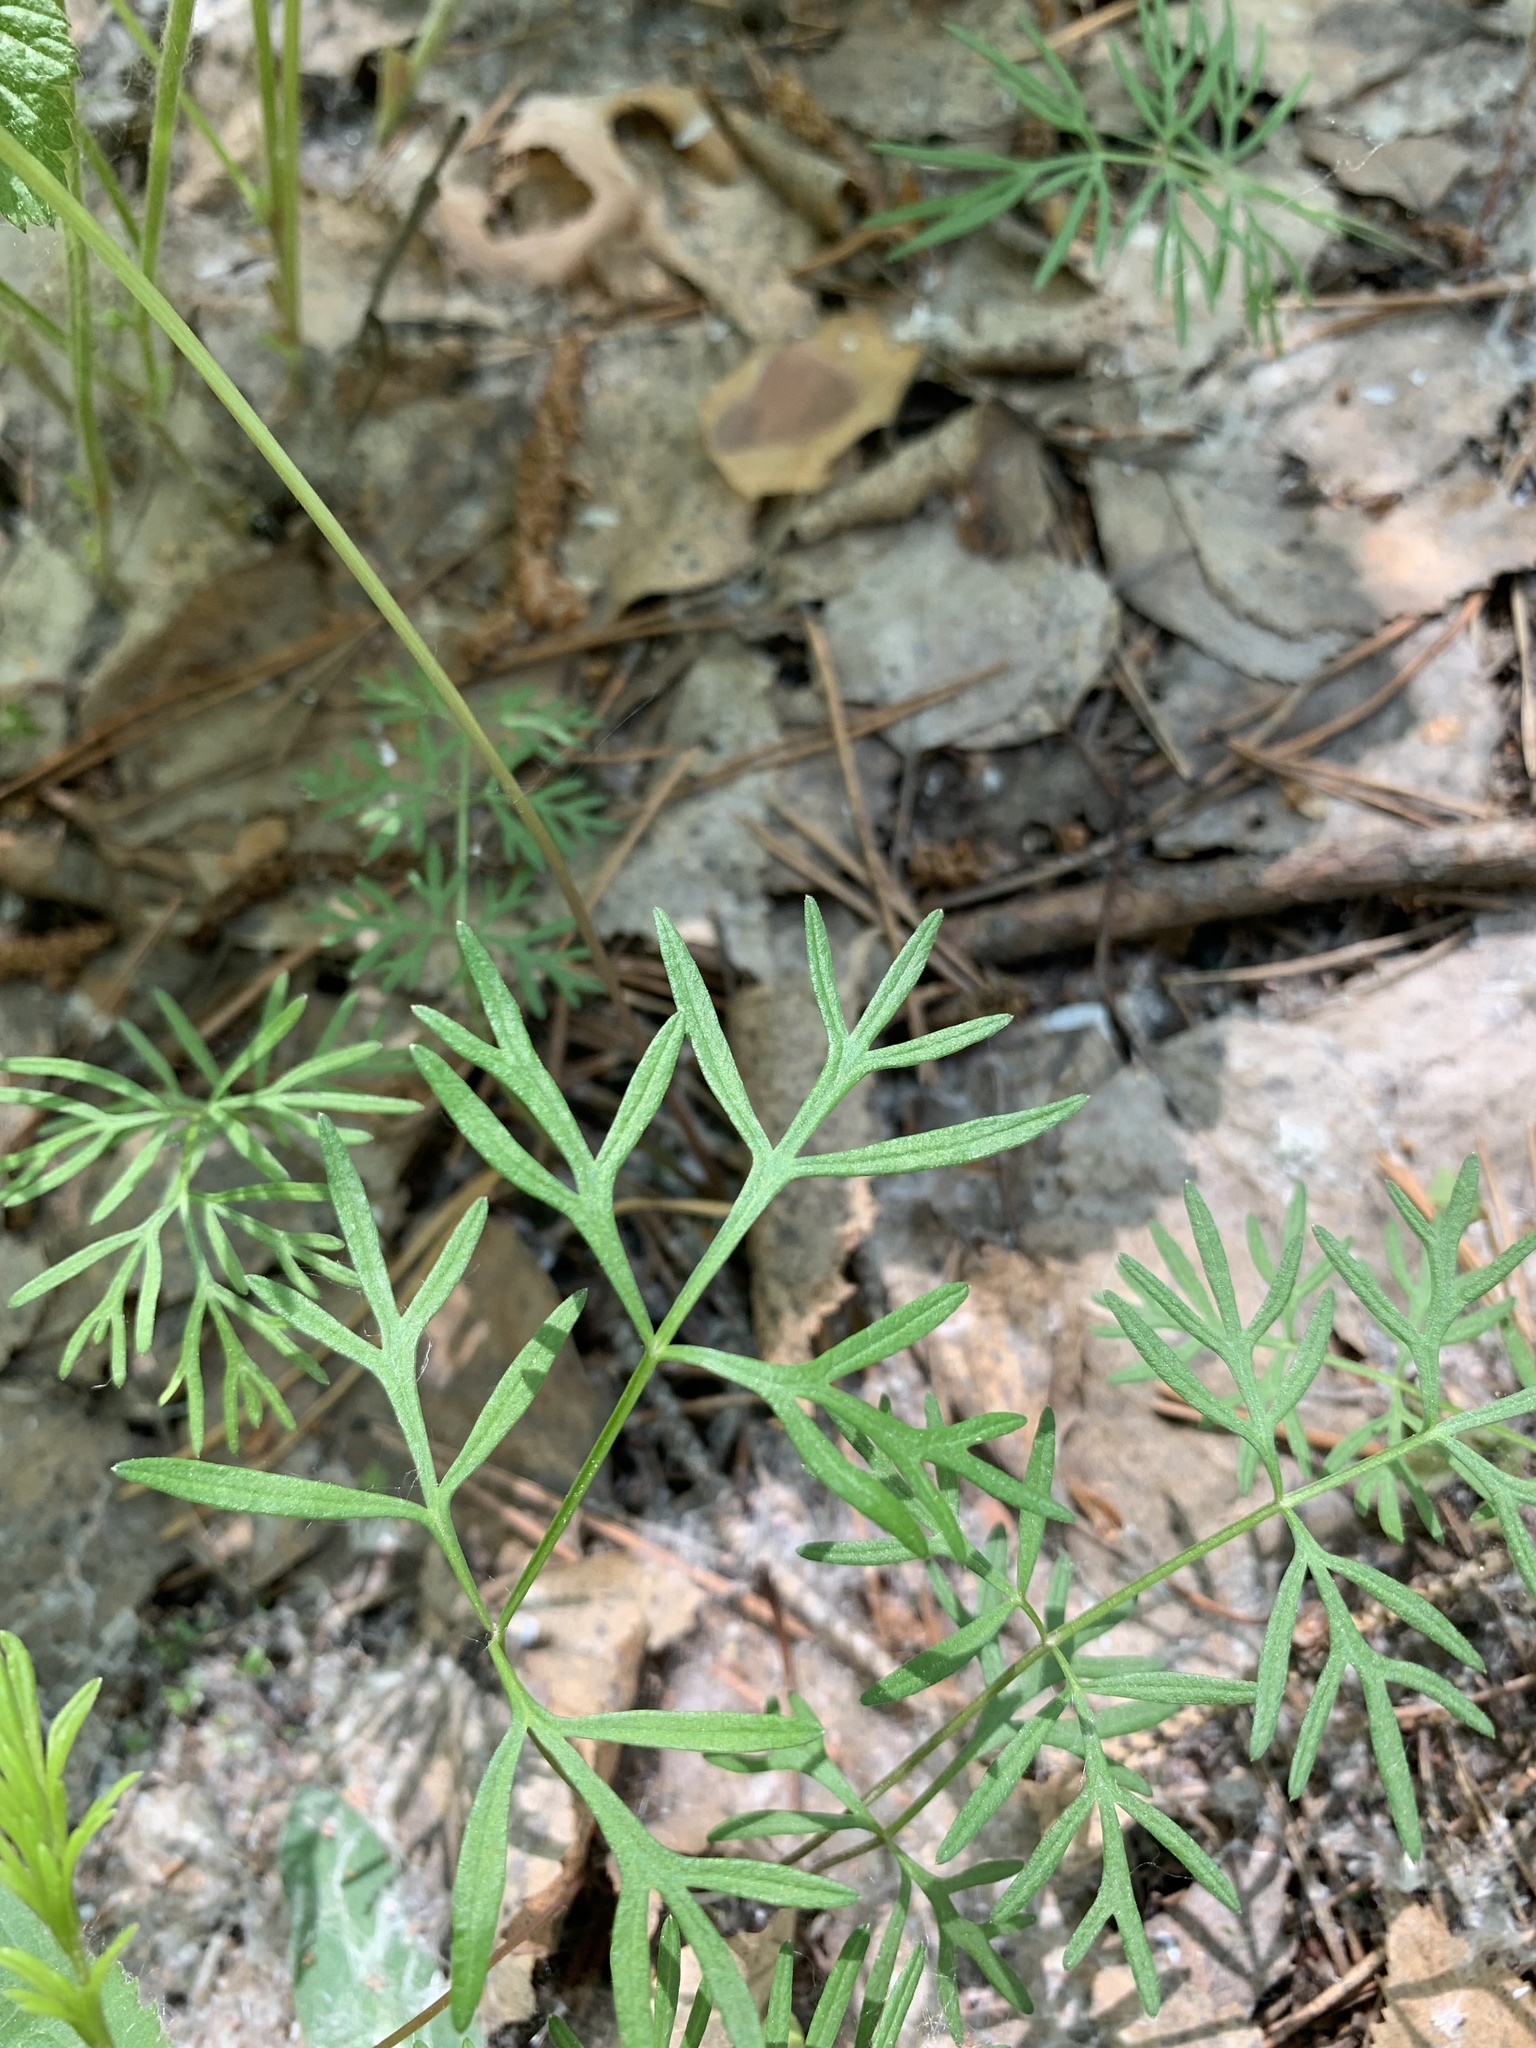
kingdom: Plantae
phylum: Tracheophyta
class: Magnoliopsida
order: Apiales
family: Apiaceae
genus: Kadenia
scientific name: Kadenia dubia
